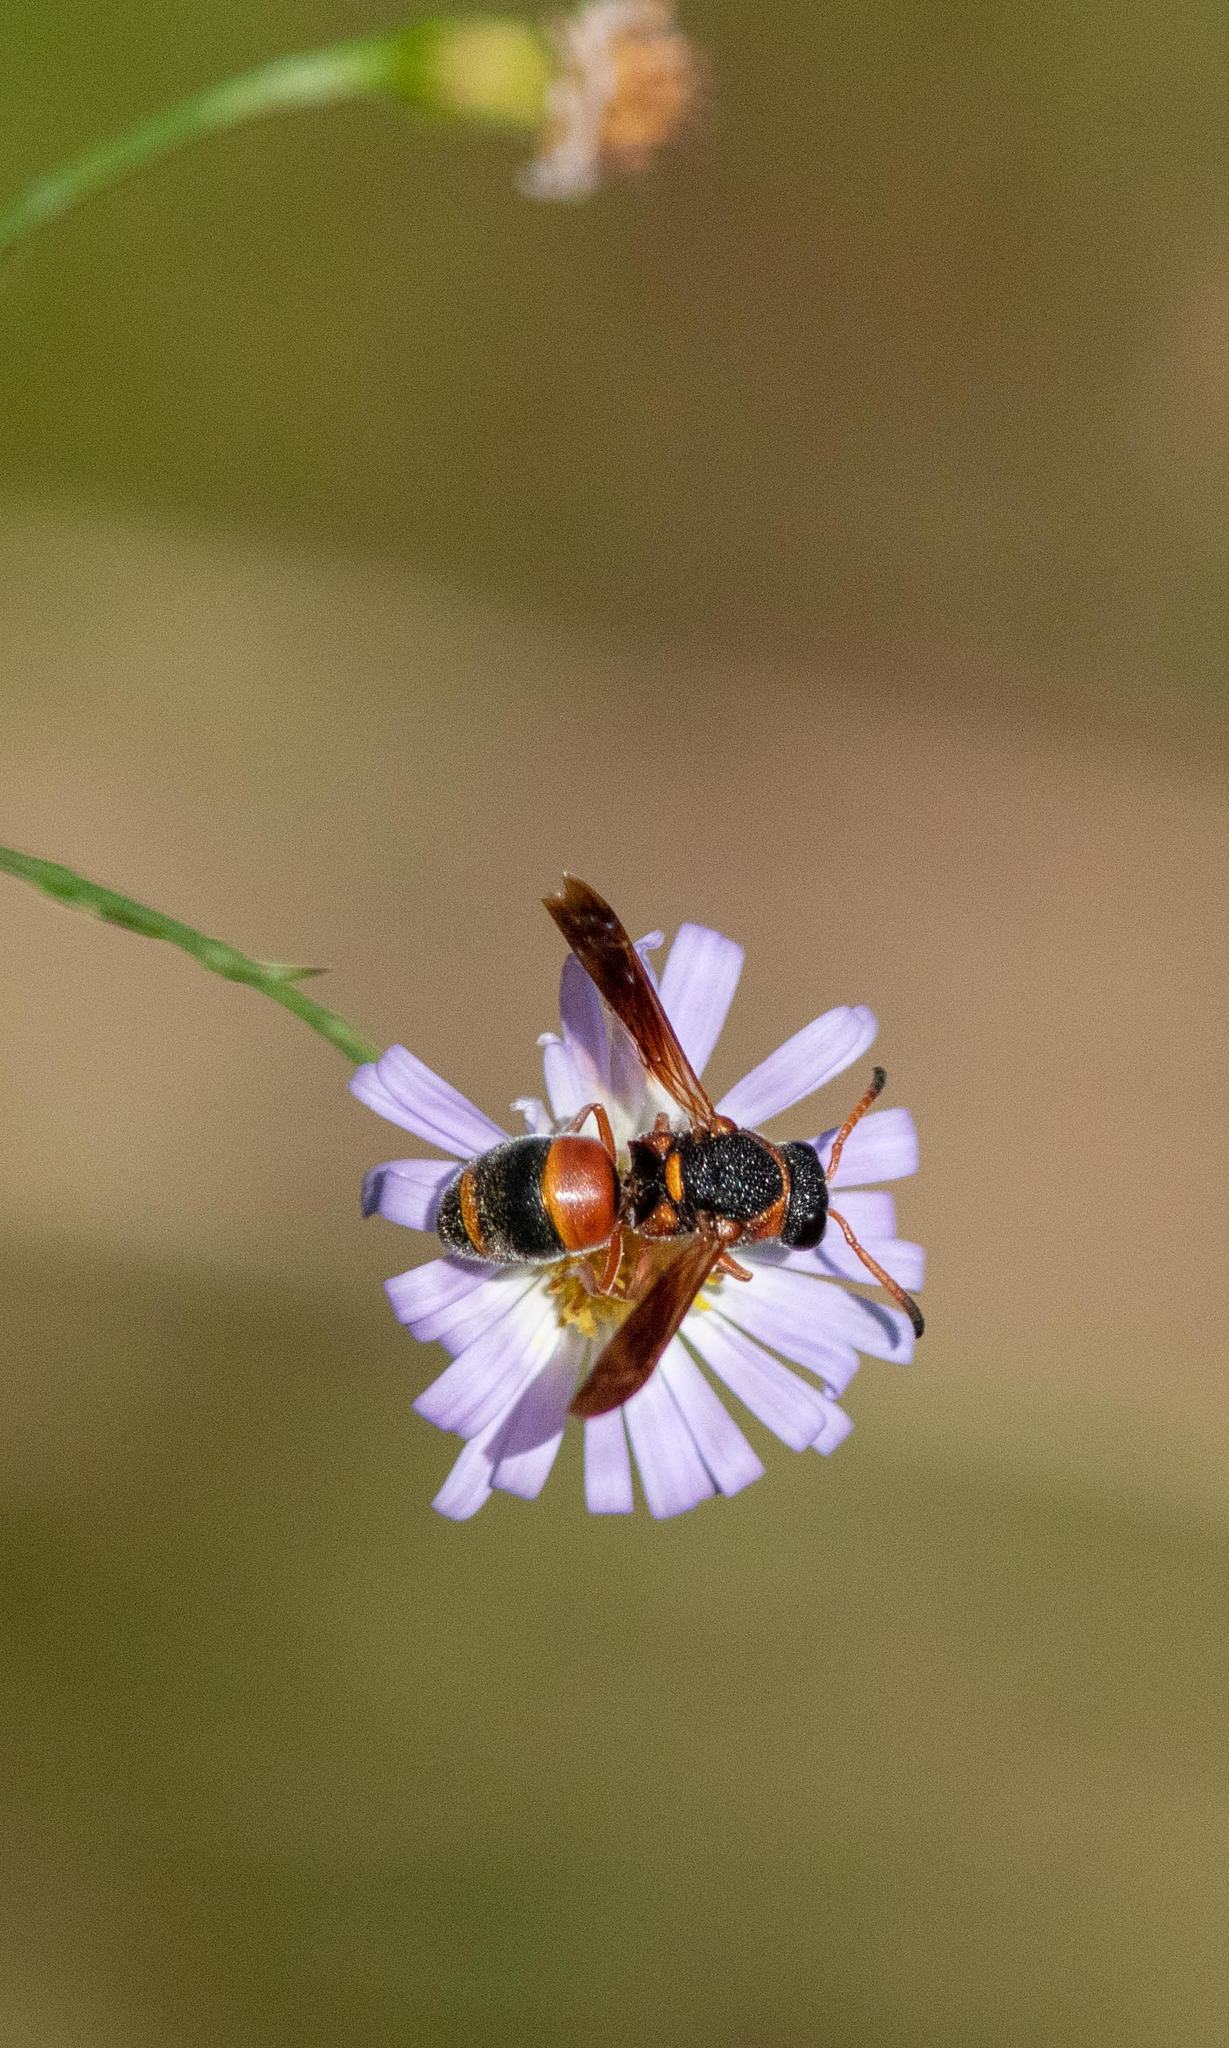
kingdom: Animalia
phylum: Arthropoda
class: Insecta
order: Hymenoptera
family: Eumenidae
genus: Pachodynerus
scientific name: Pachodynerus erynnis
